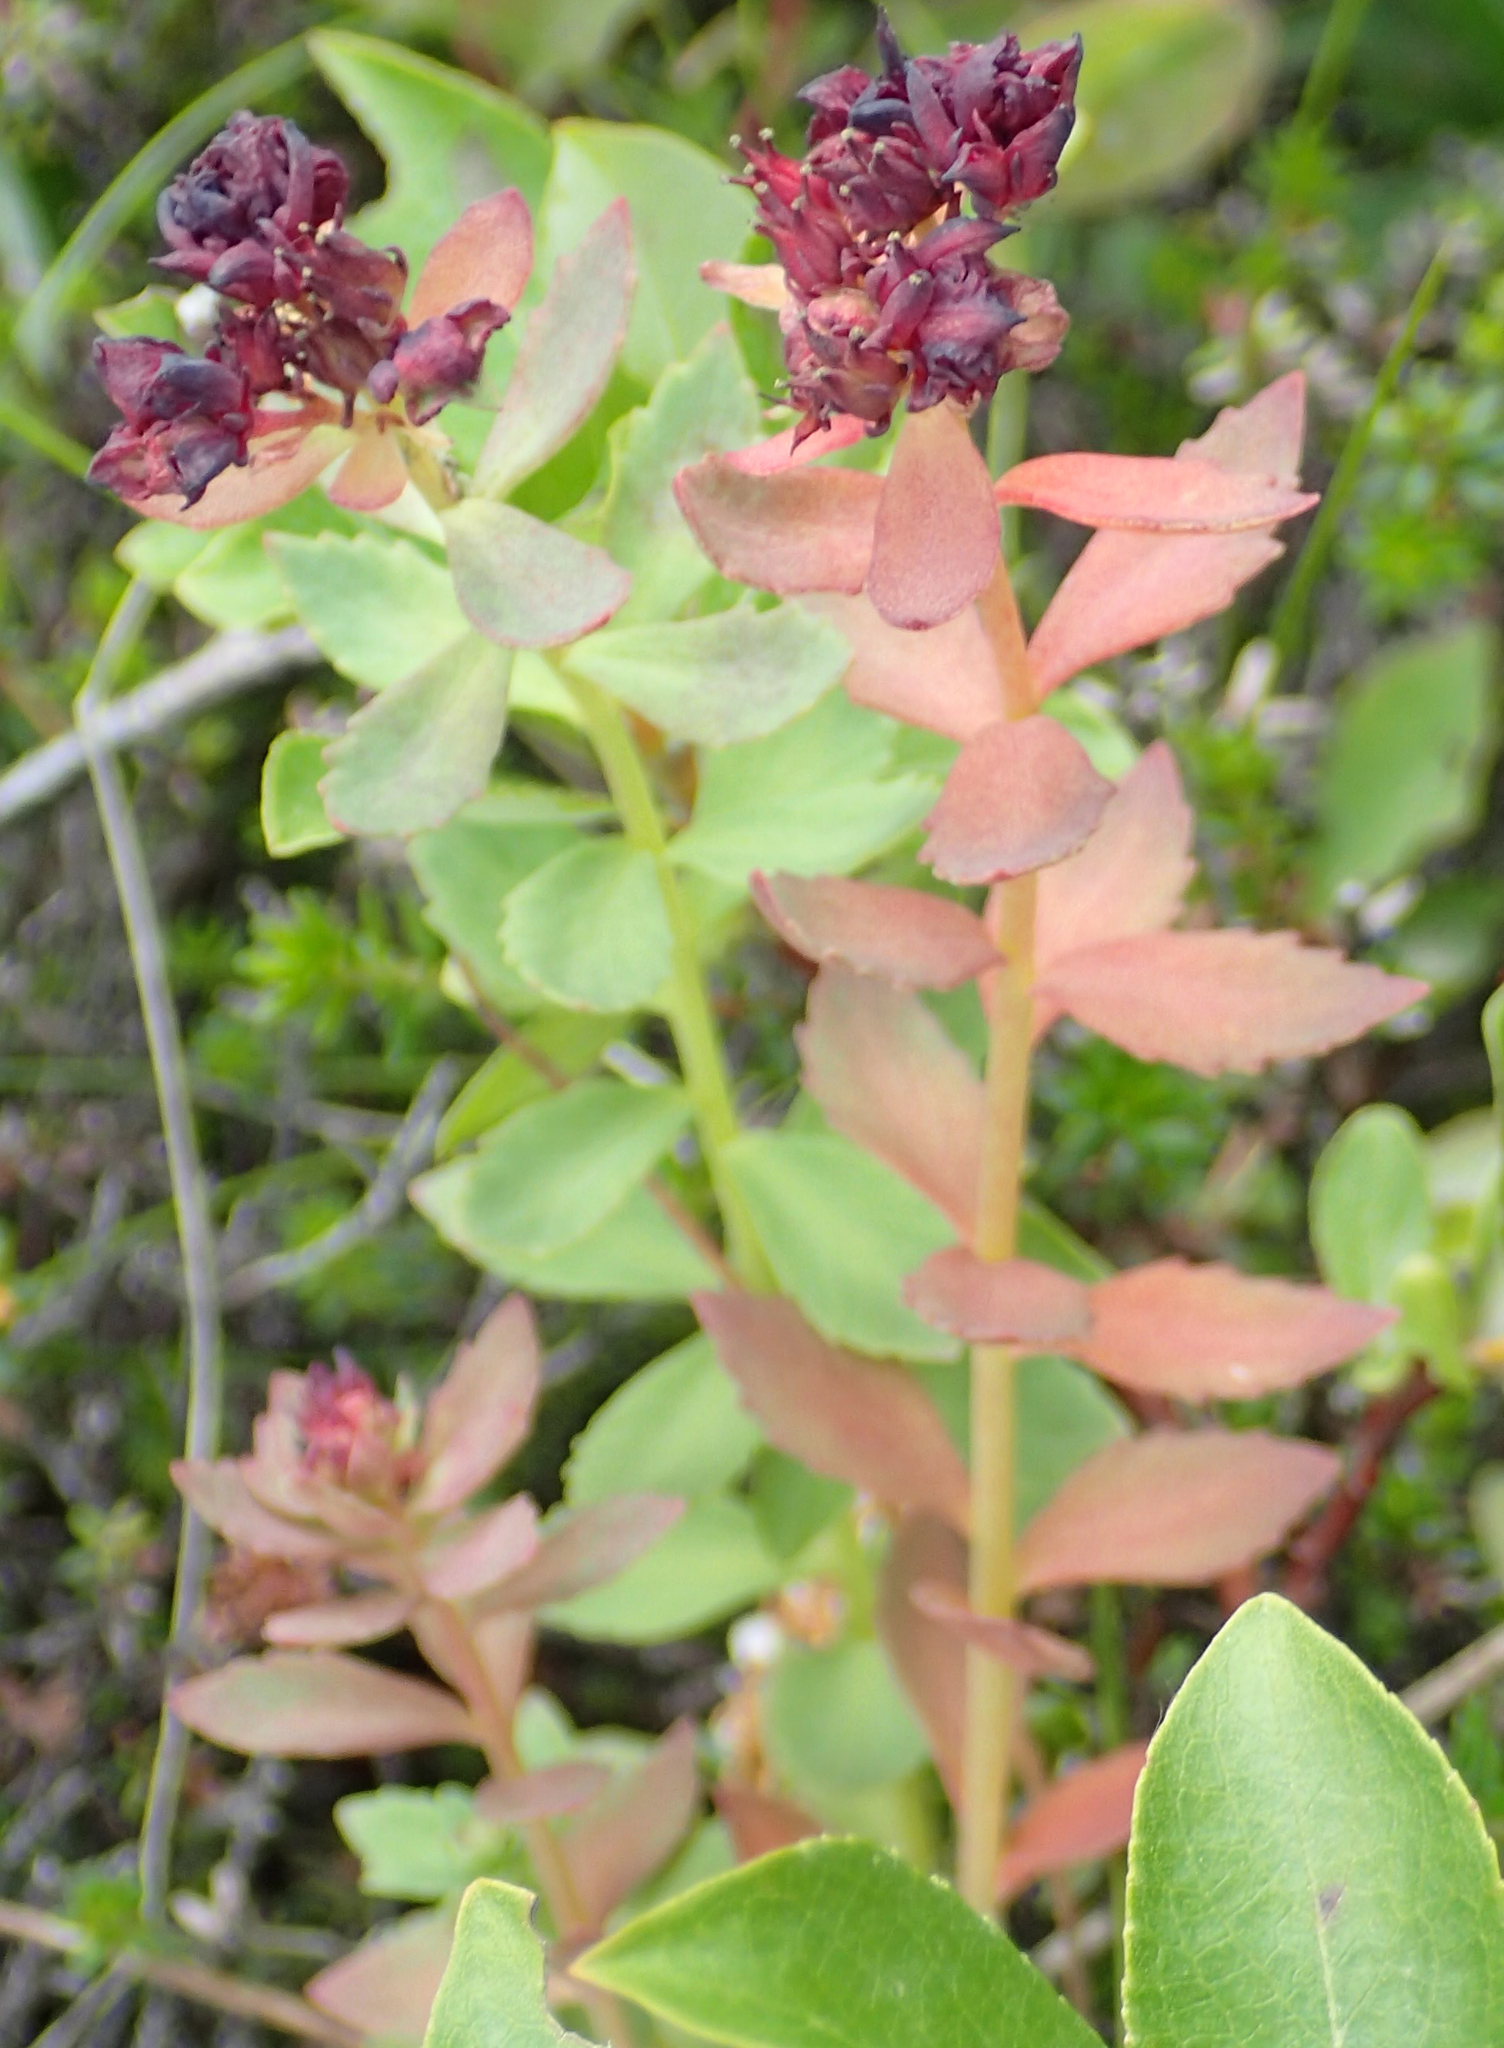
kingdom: Plantae
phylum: Tracheophyta
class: Magnoliopsida
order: Saxifragales
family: Crassulaceae
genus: Rhodiola
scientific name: Rhodiola integrifolia
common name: Western roseroot
